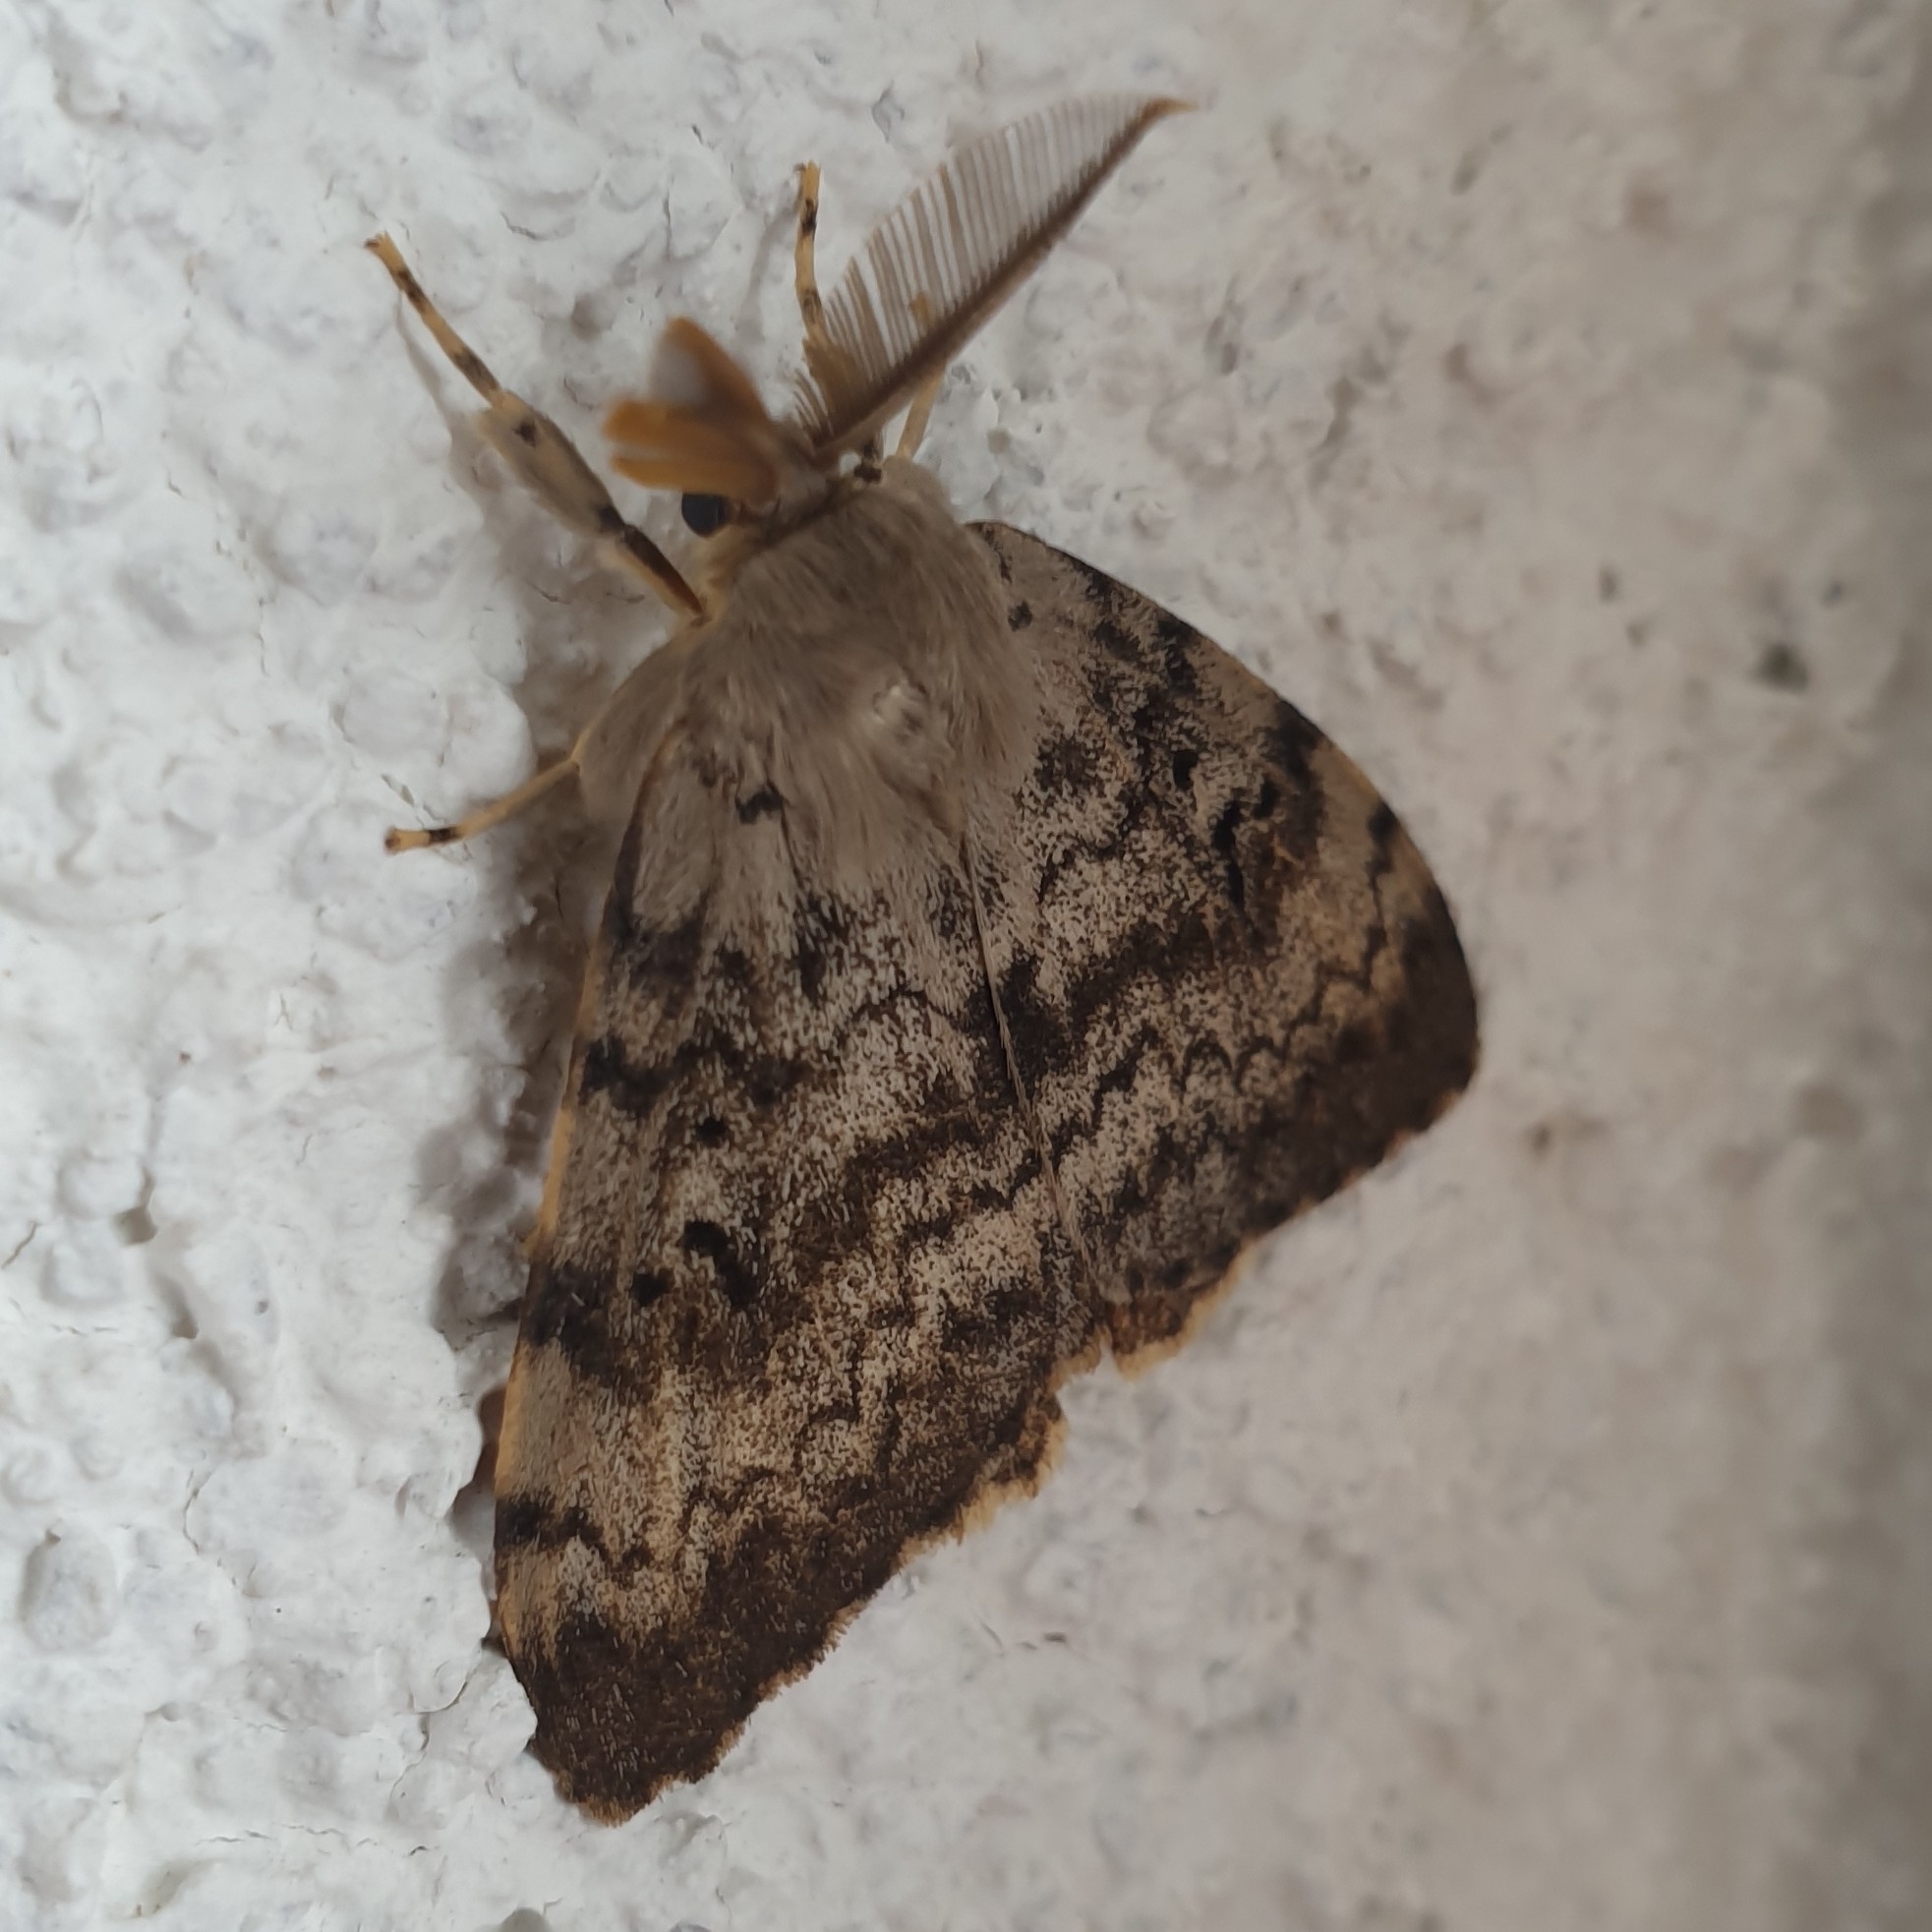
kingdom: Animalia
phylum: Arthropoda
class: Insecta
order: Lepidoptera
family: Erebidae
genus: Lymantria
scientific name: Lymantria dispar
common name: Gypsy moth
